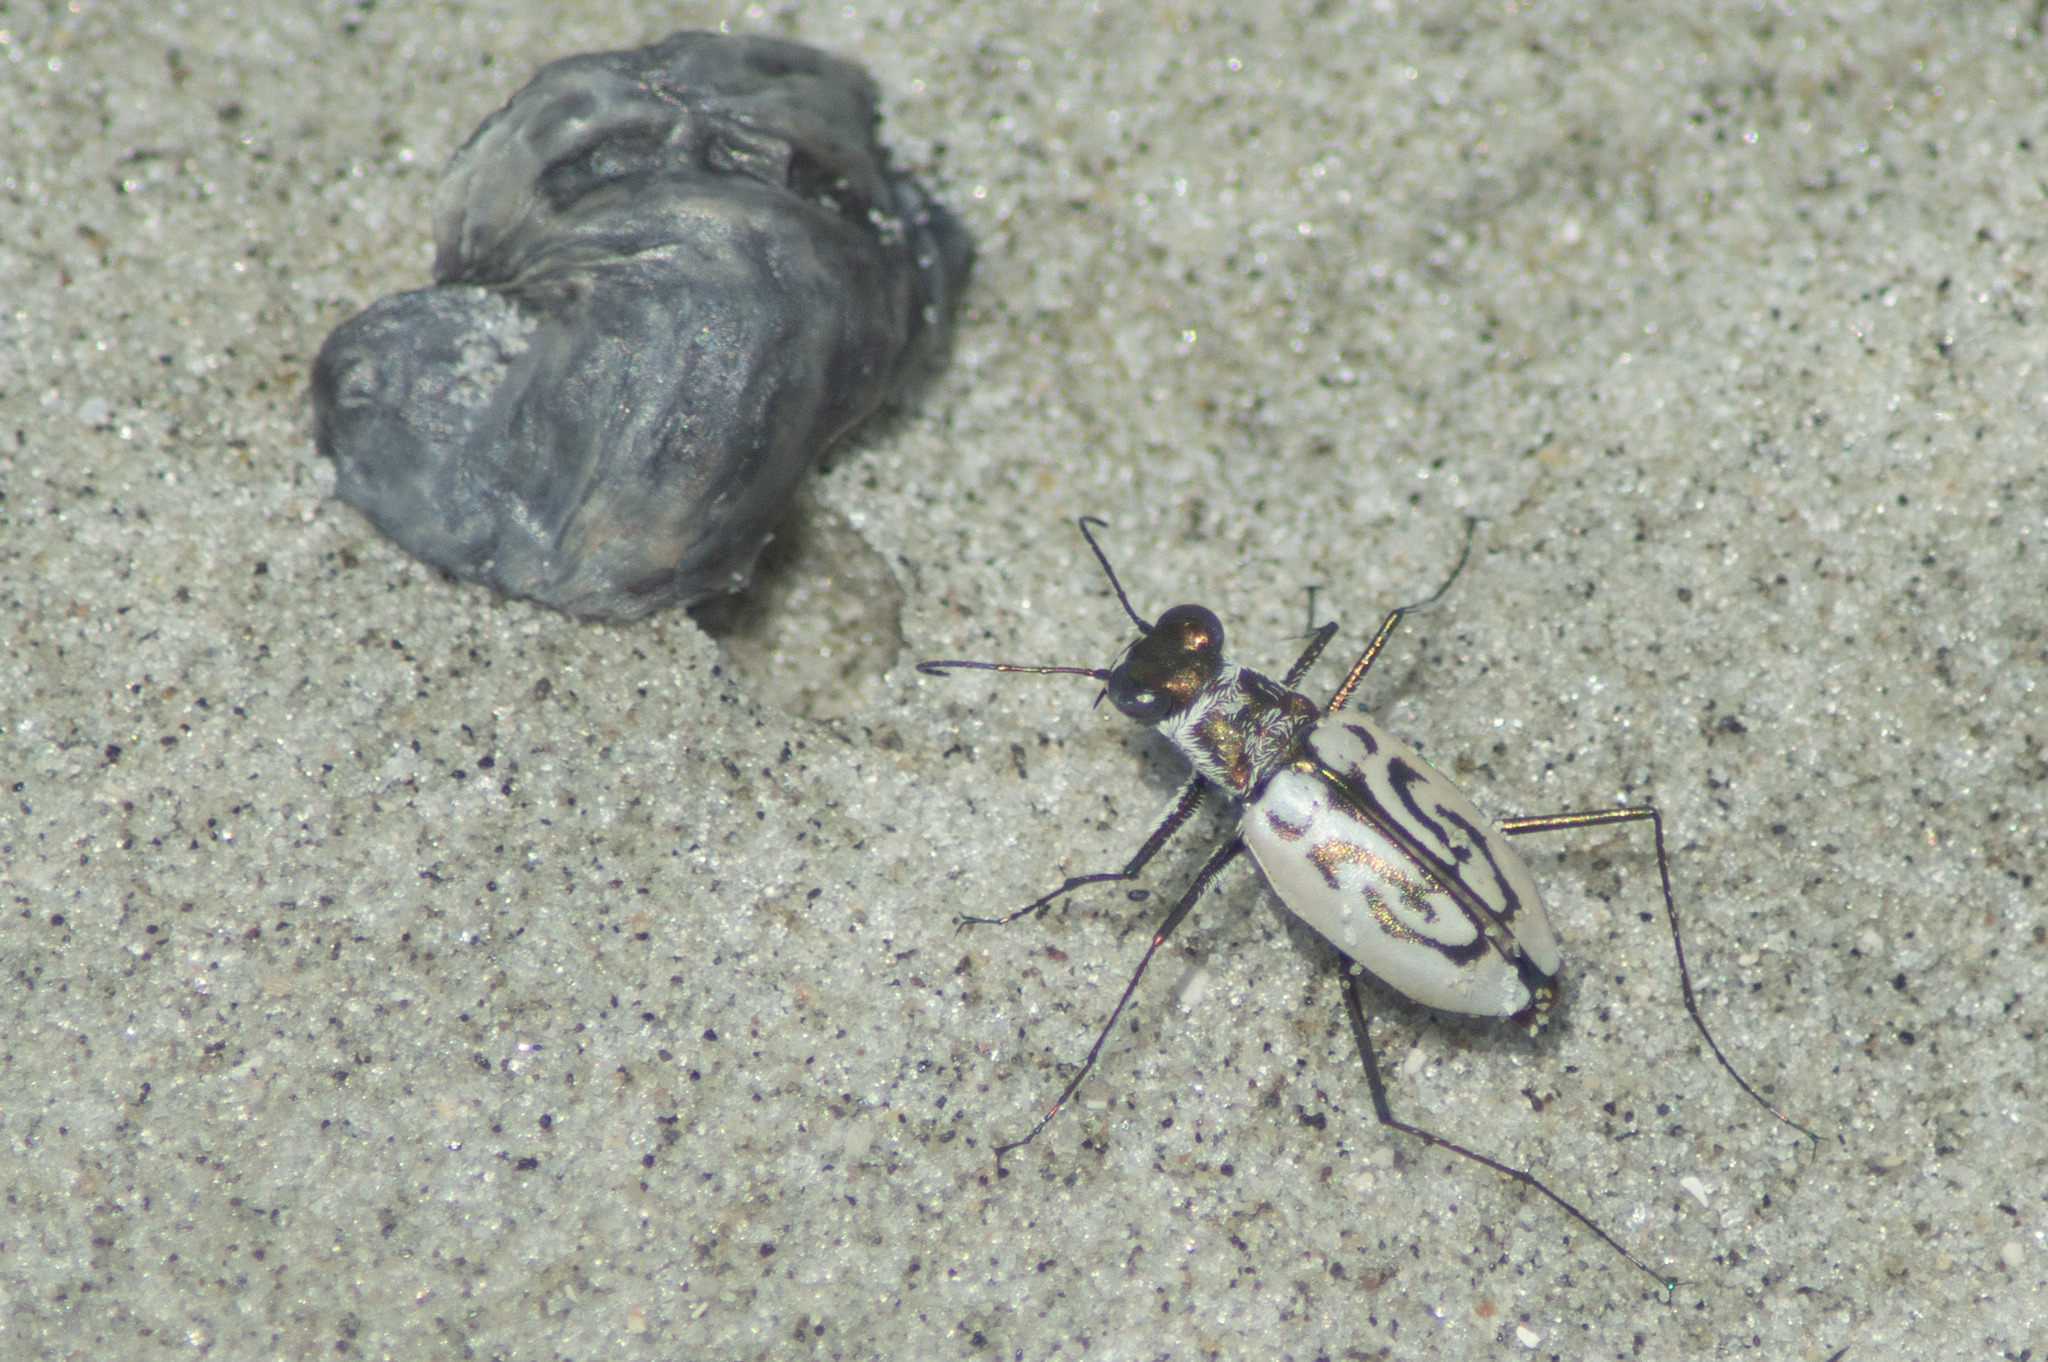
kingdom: Animalia
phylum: Arthropoda
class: Insecta
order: Coleoptera
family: Carabidae
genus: Habroscelimorpha
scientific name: Habroscelimorpha dorsalis
